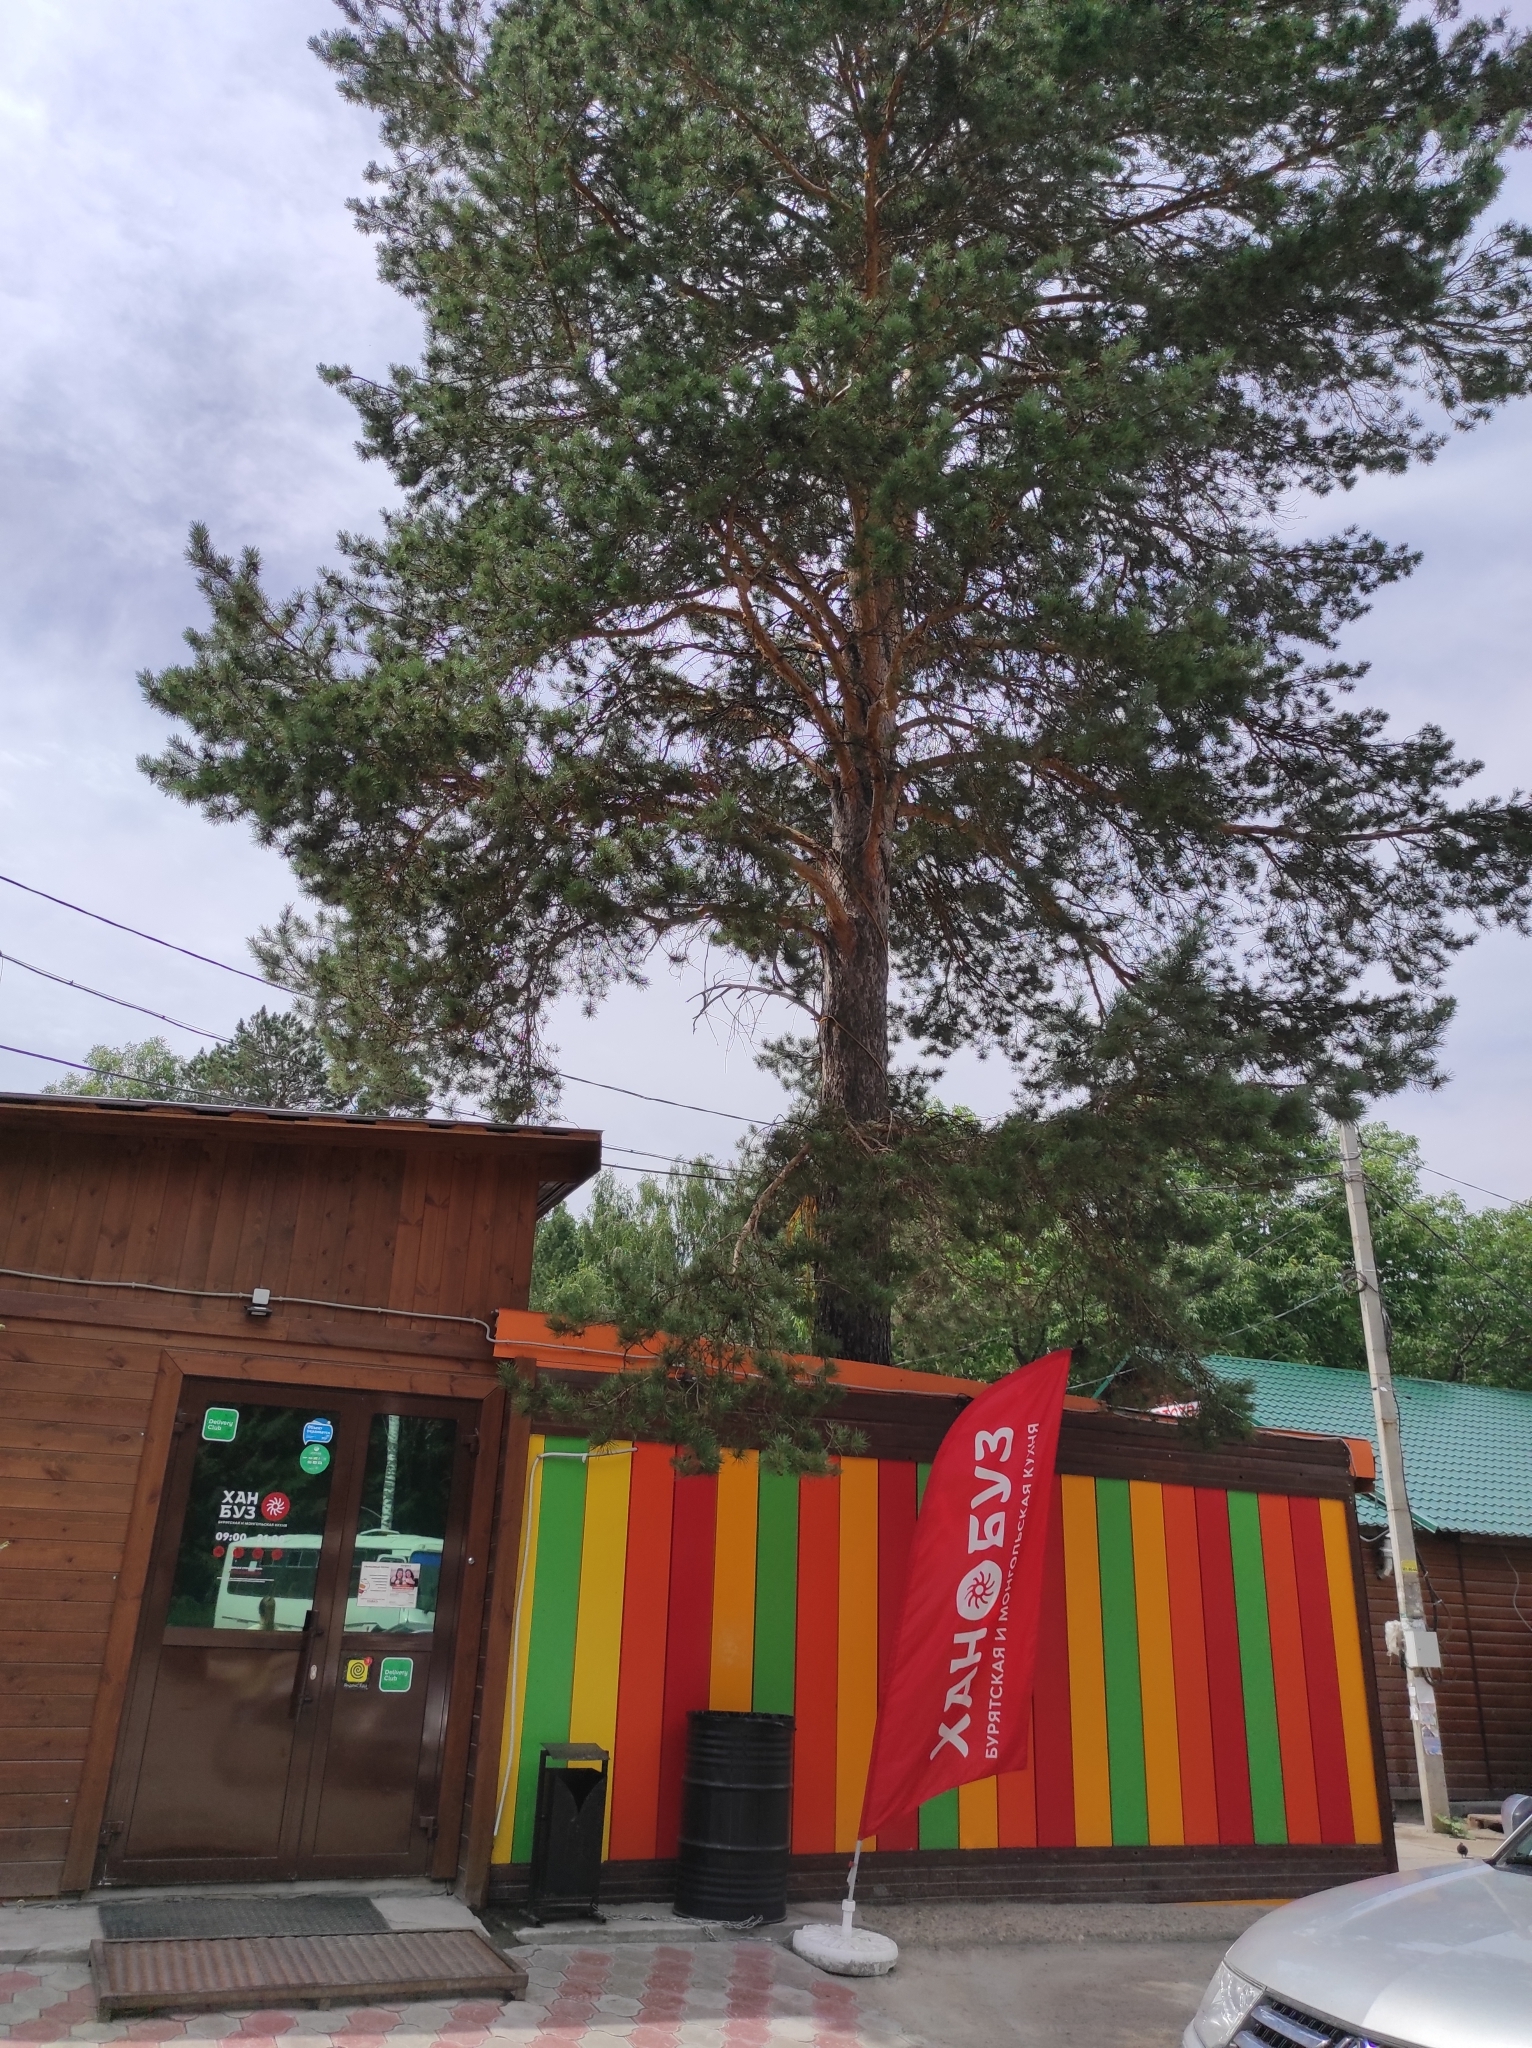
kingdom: Plantae
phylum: Tracheophyta
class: Pinopsida
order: Pinales
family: Pinaceae
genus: Pinus
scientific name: Pinus sylvestris
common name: Scots pine
